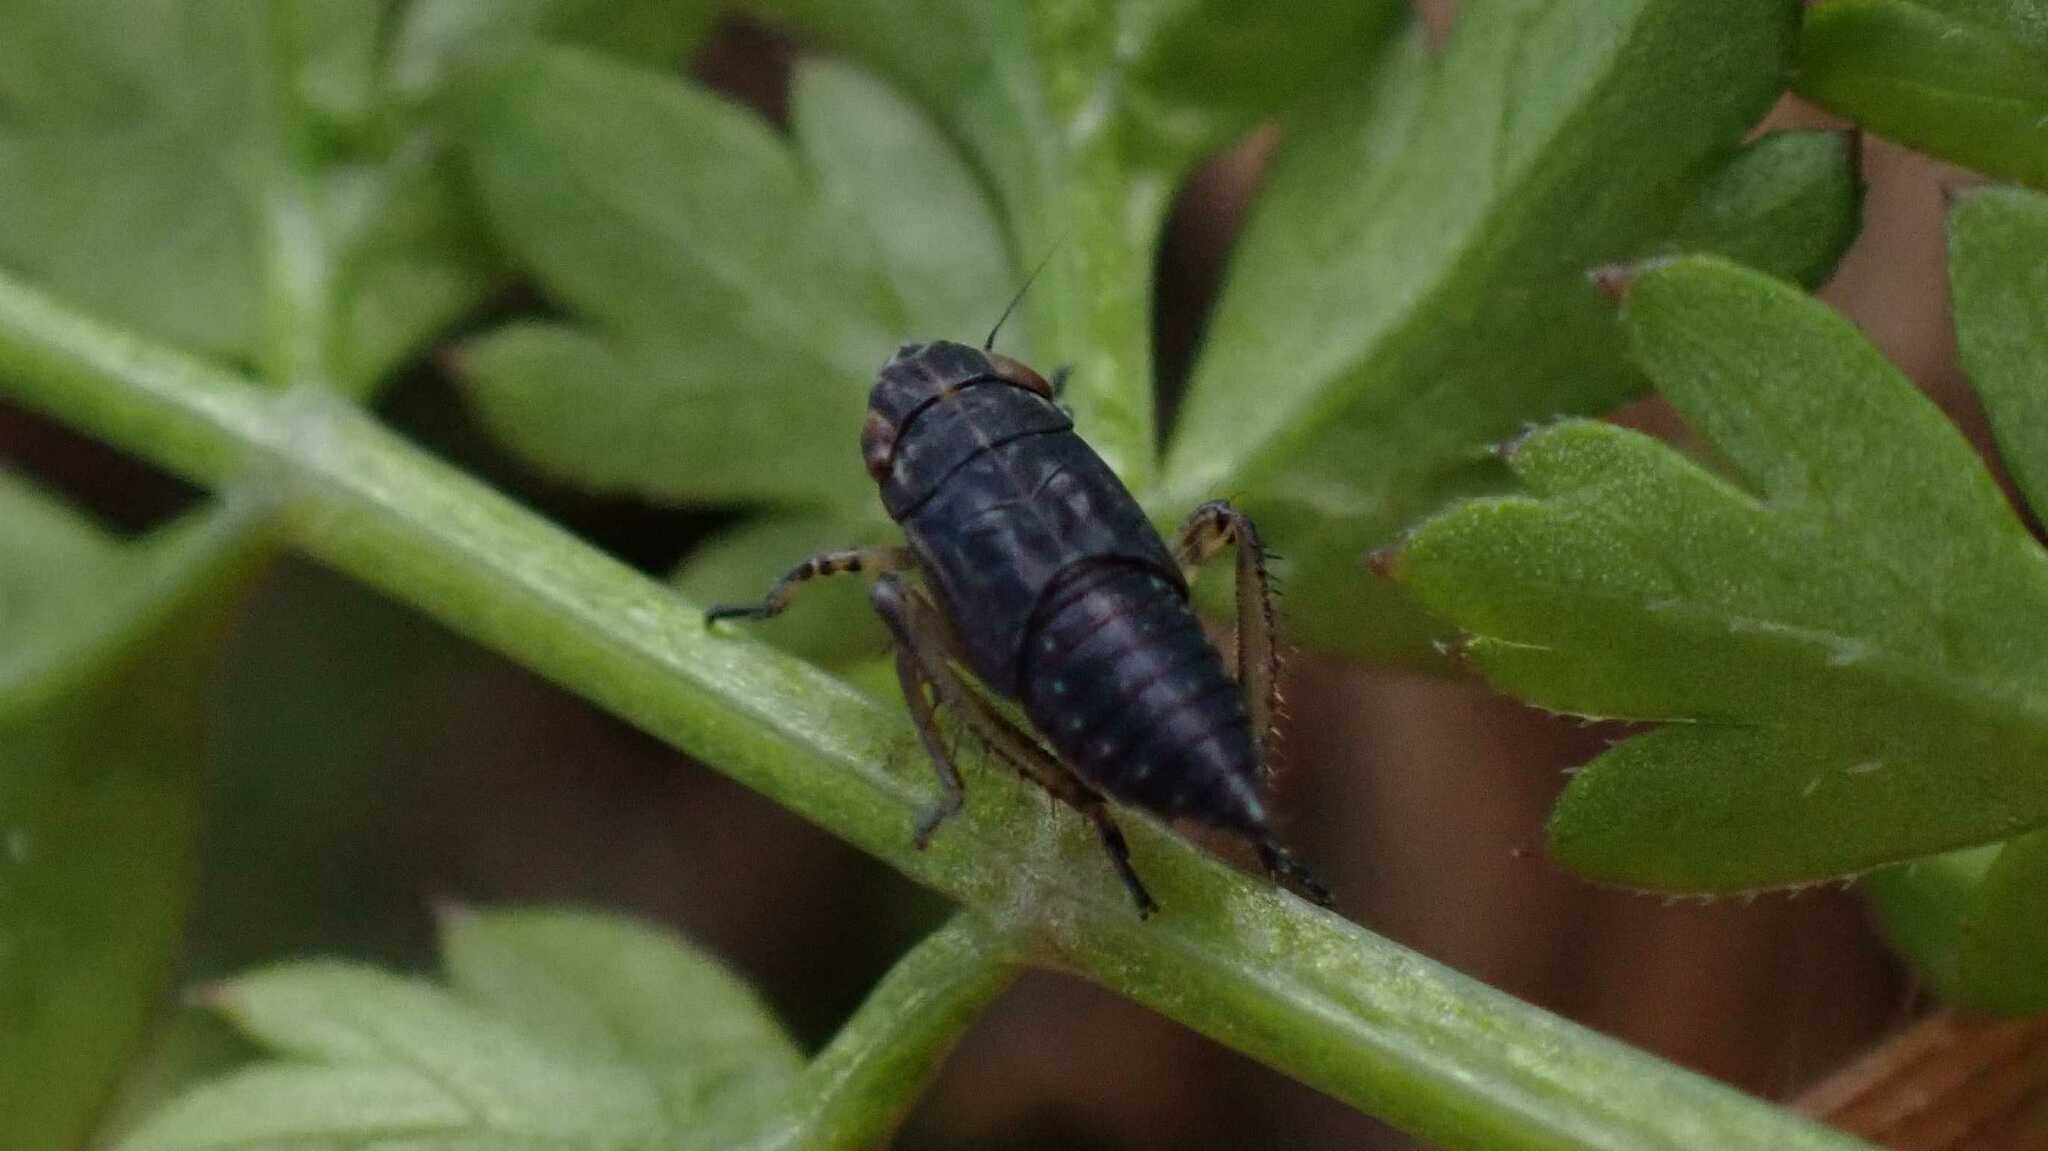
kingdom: Animalia
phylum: Arthropoda
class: Insecta
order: Hemiptera
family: Cicadellidae
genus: Euscelis
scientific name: Euscelis incisa
